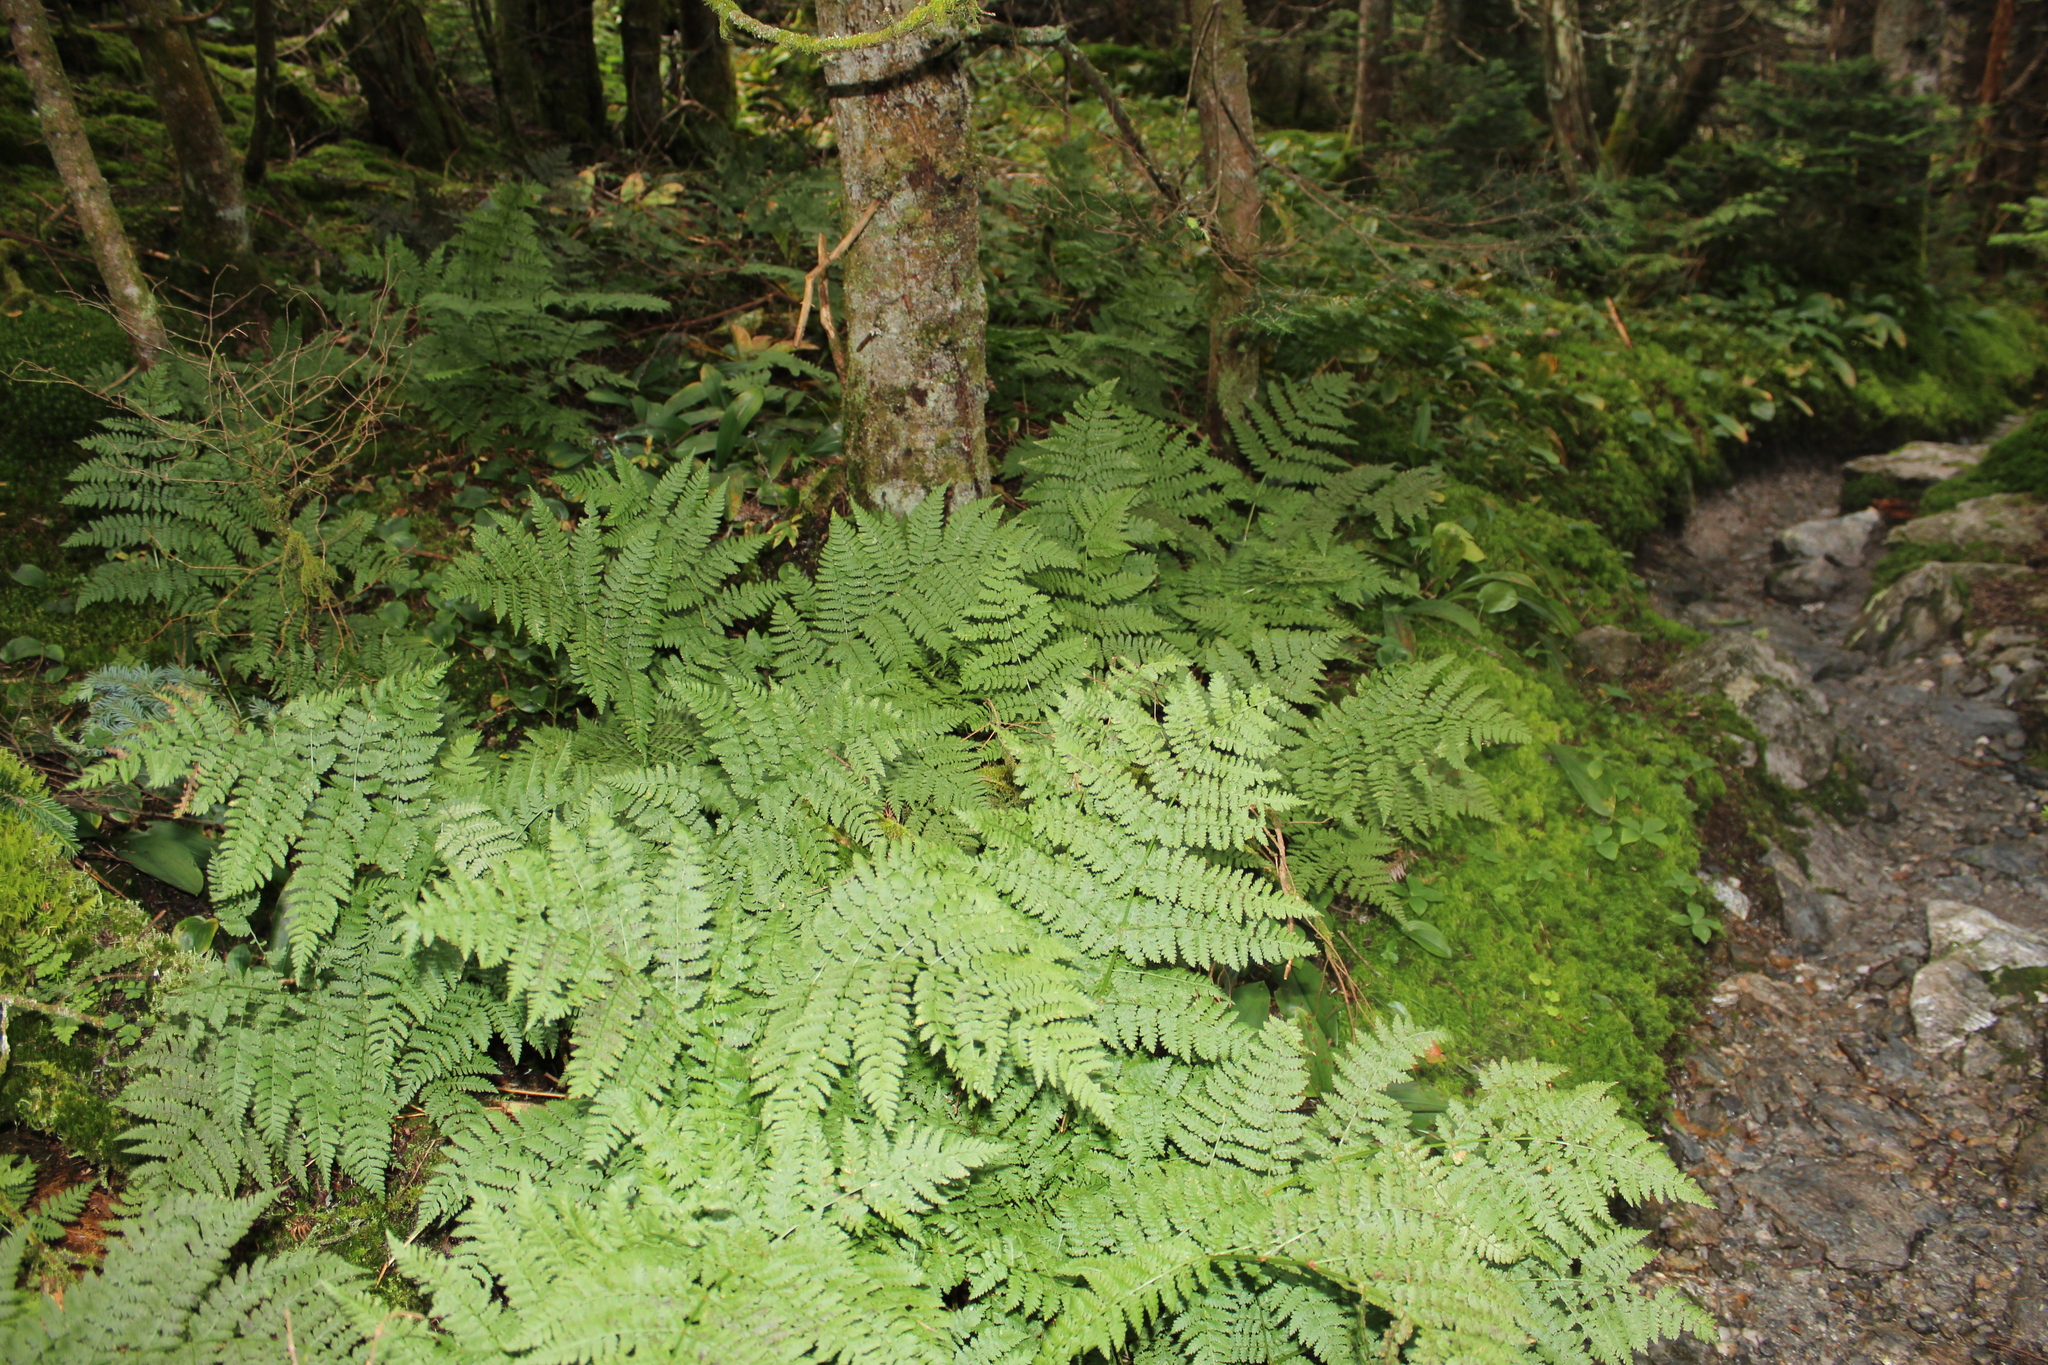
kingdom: Plantae
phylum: Tracheophyta
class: Polypodiopsida
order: Polypodiales
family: Dryopteridaceae
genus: Dryopteris
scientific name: Dryopteris campyloptera
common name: Mountain wood fern
